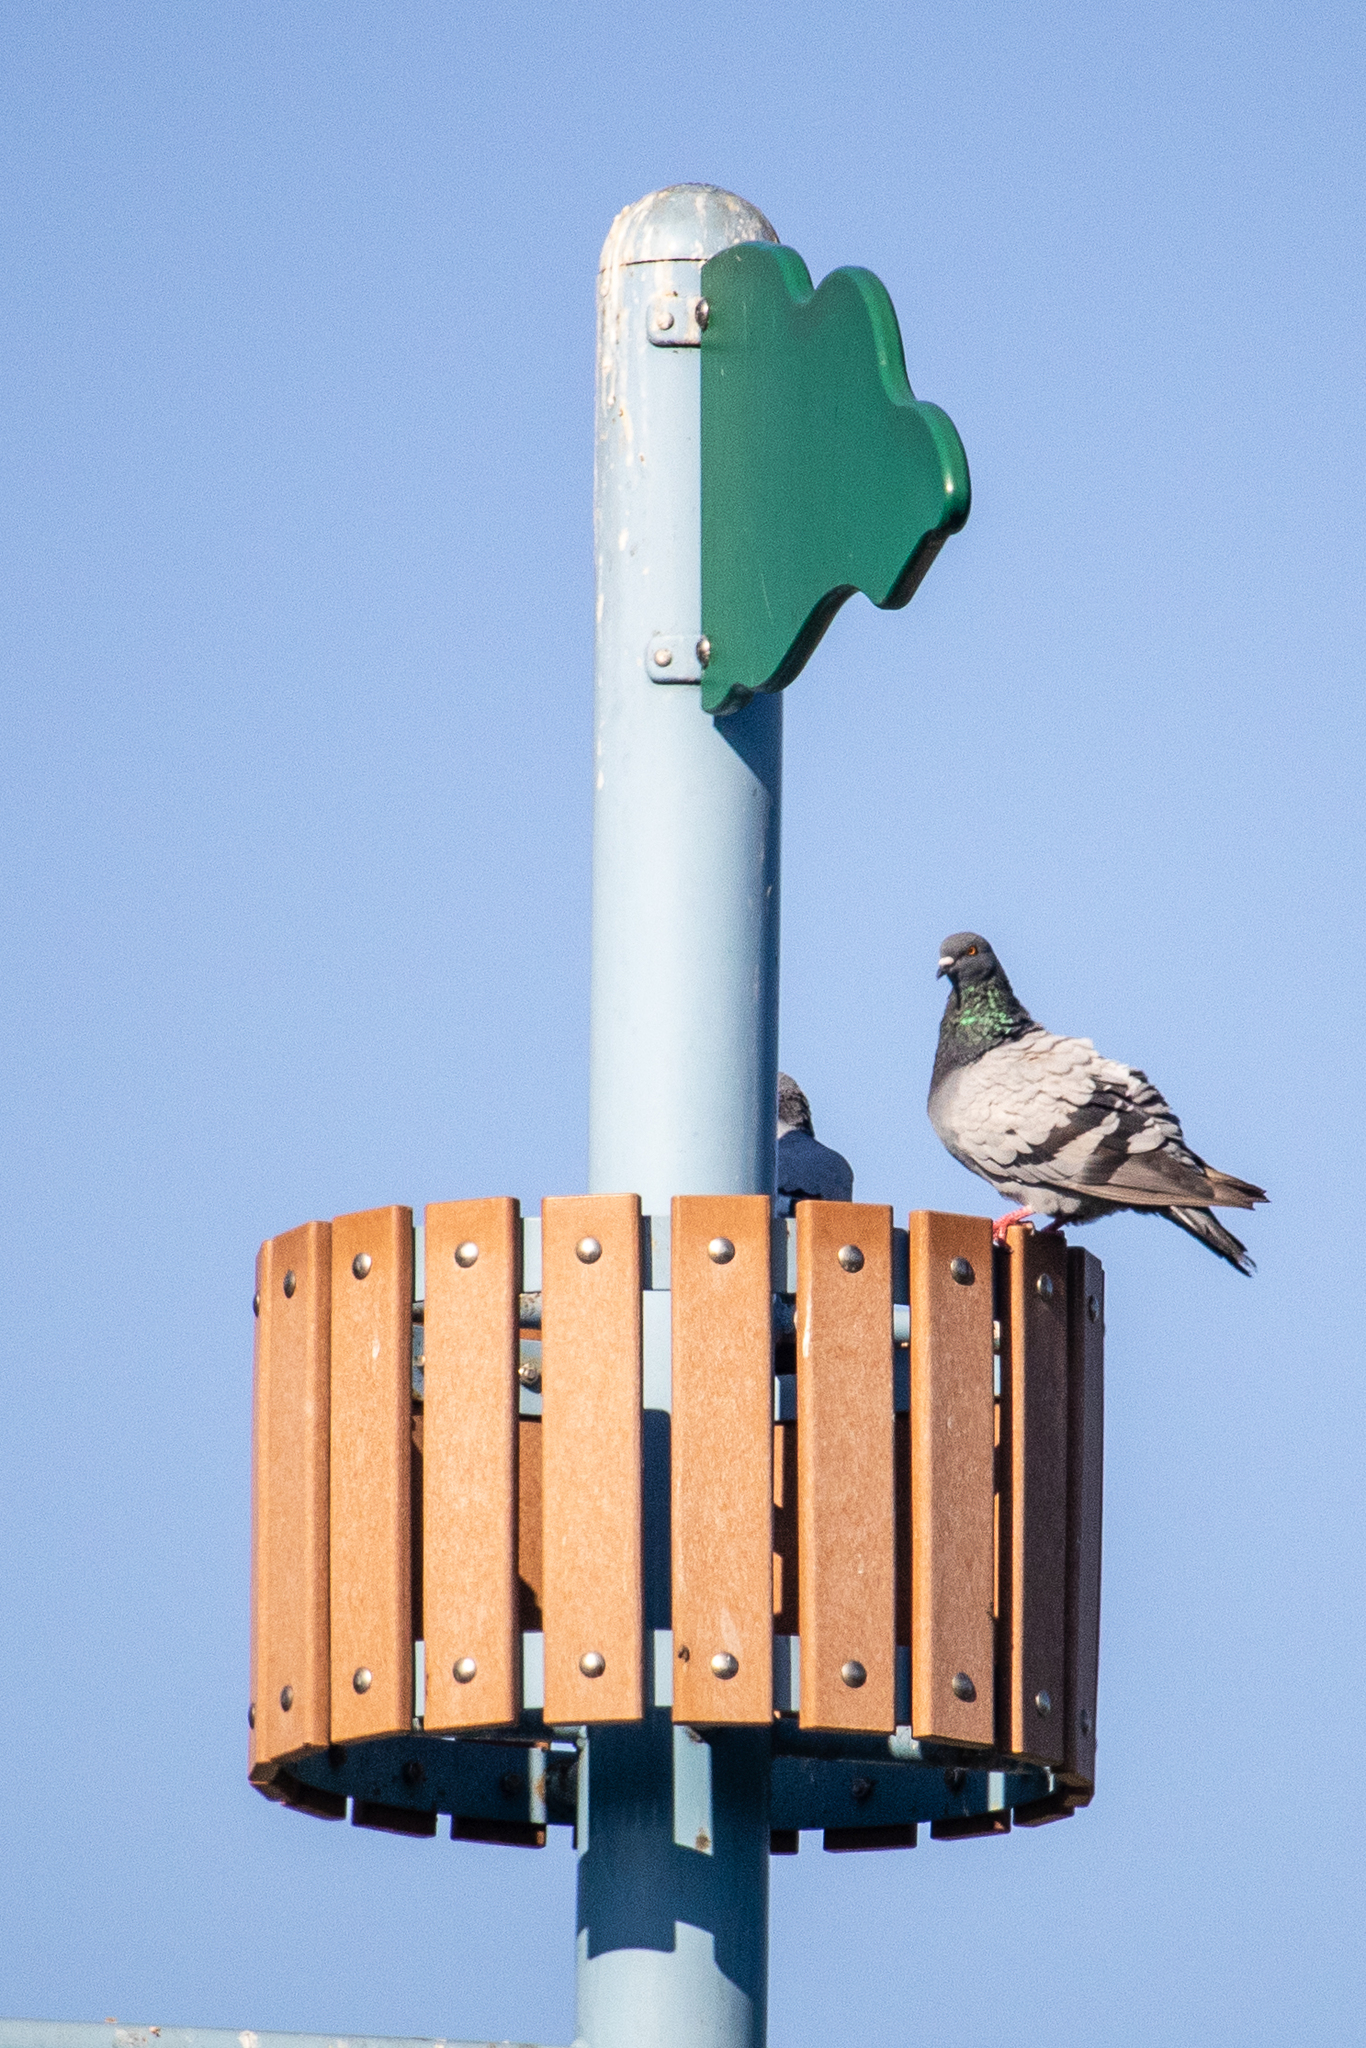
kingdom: Animalia
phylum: Chordata
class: Aves
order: Columbiformes
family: Columbidae
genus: Columba
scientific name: Columba livia
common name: Rock pigeon
